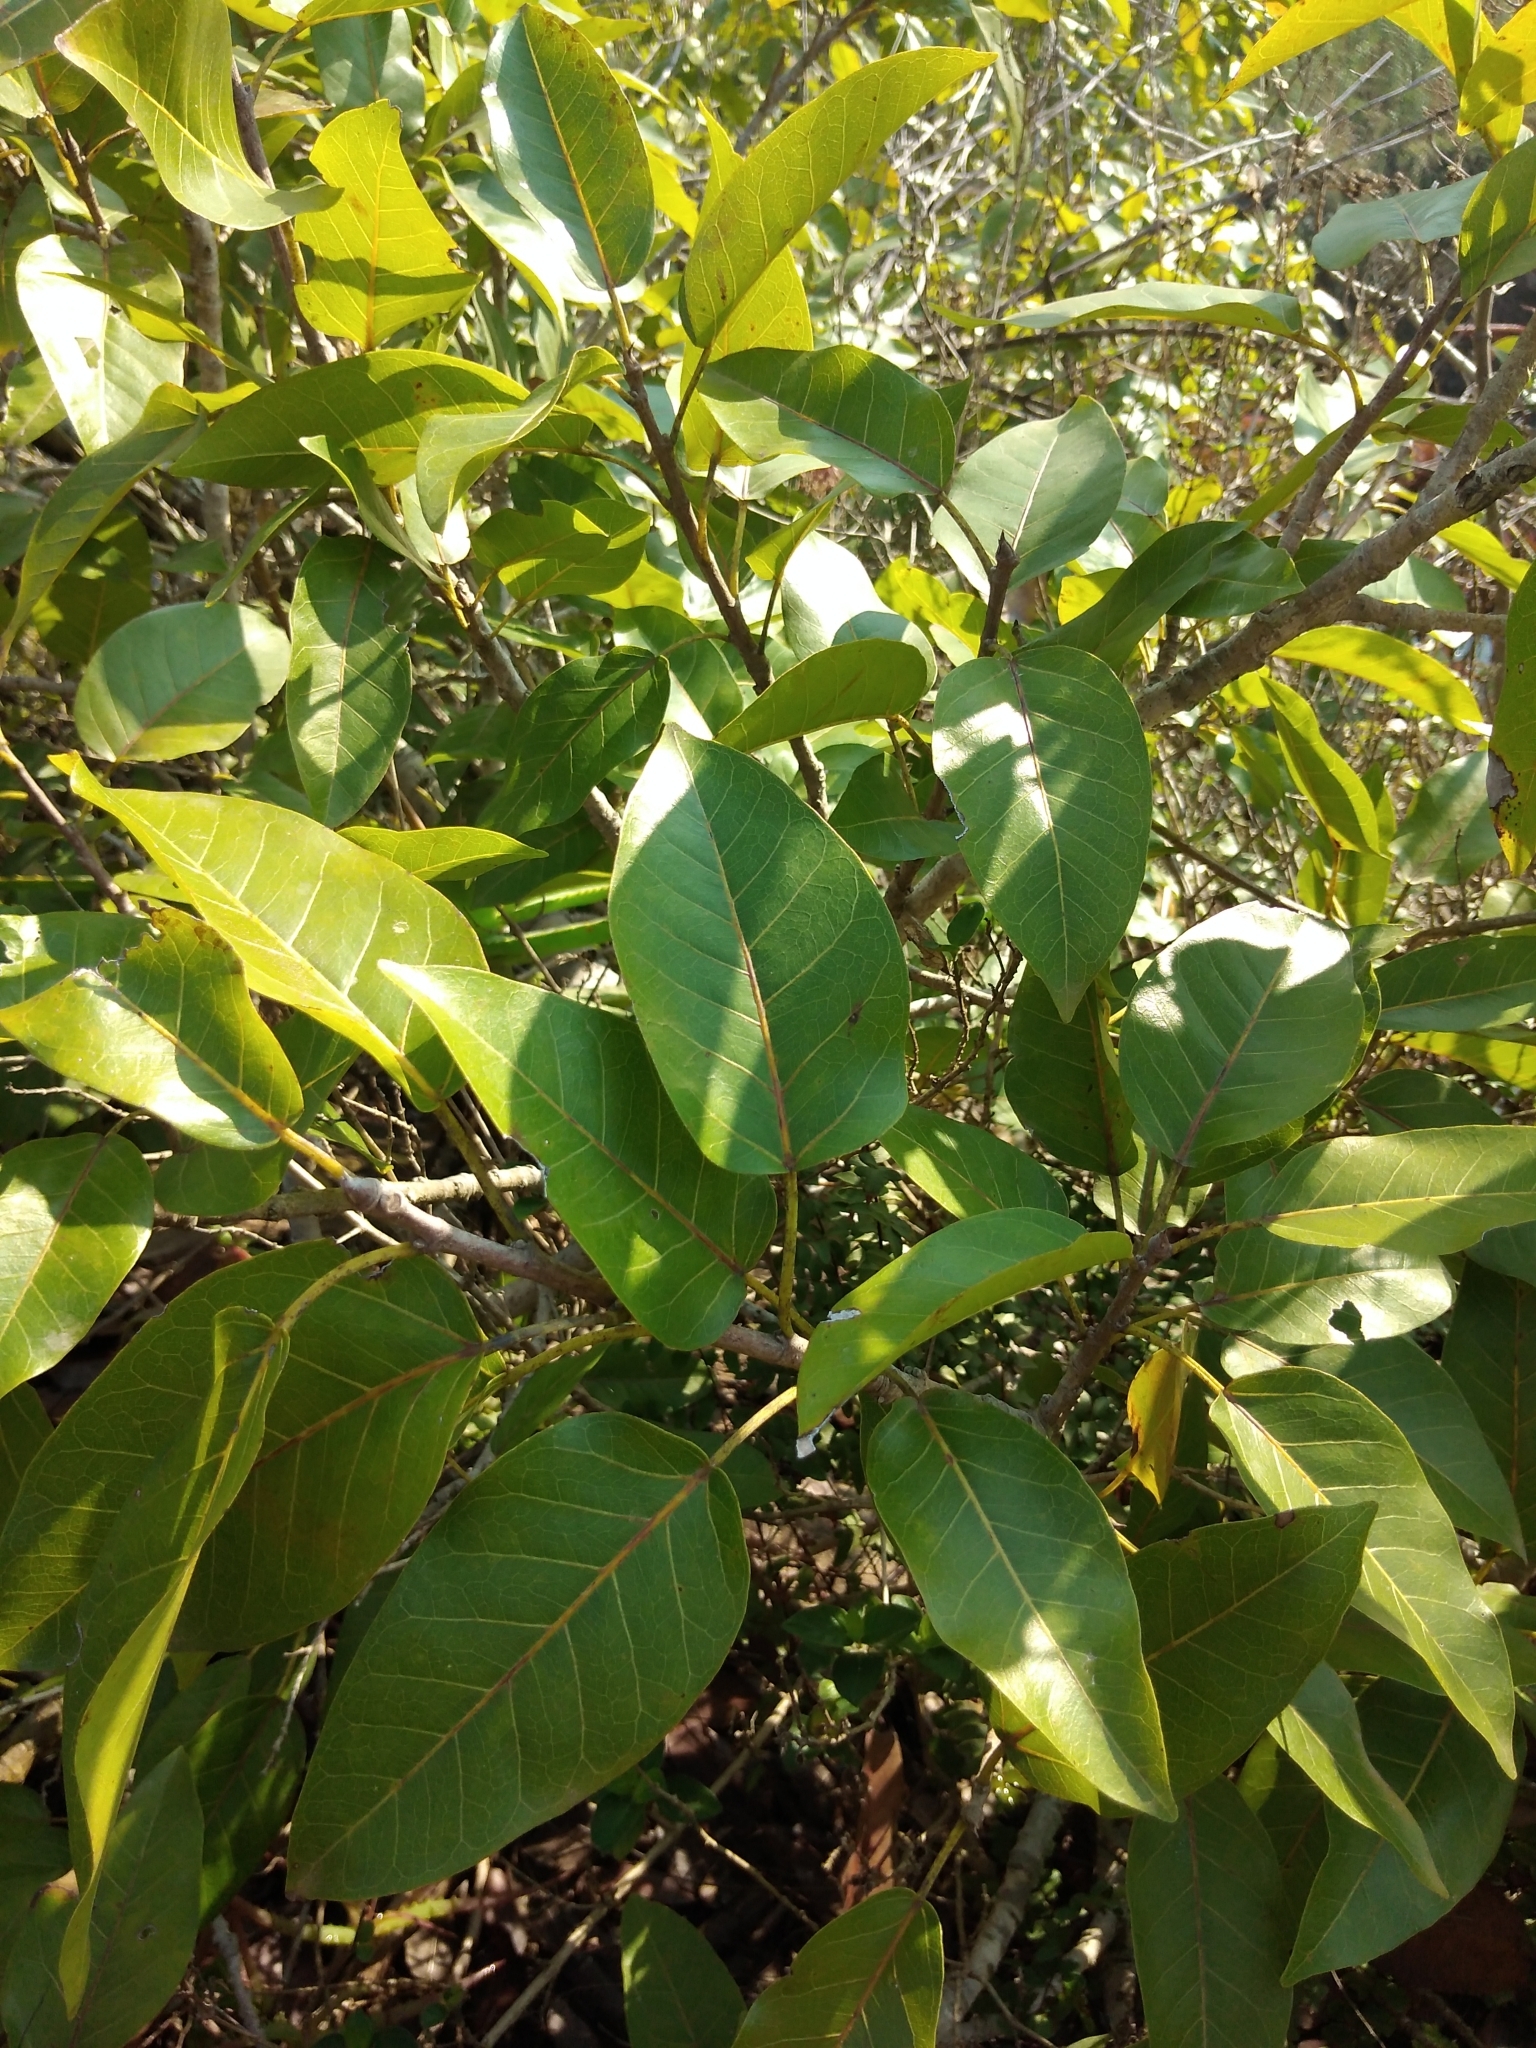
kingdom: Plantae
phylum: Tracheophyta
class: Magnoliopsida
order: Rosales
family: Moraceae
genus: Ficus
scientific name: Ficus ingens
